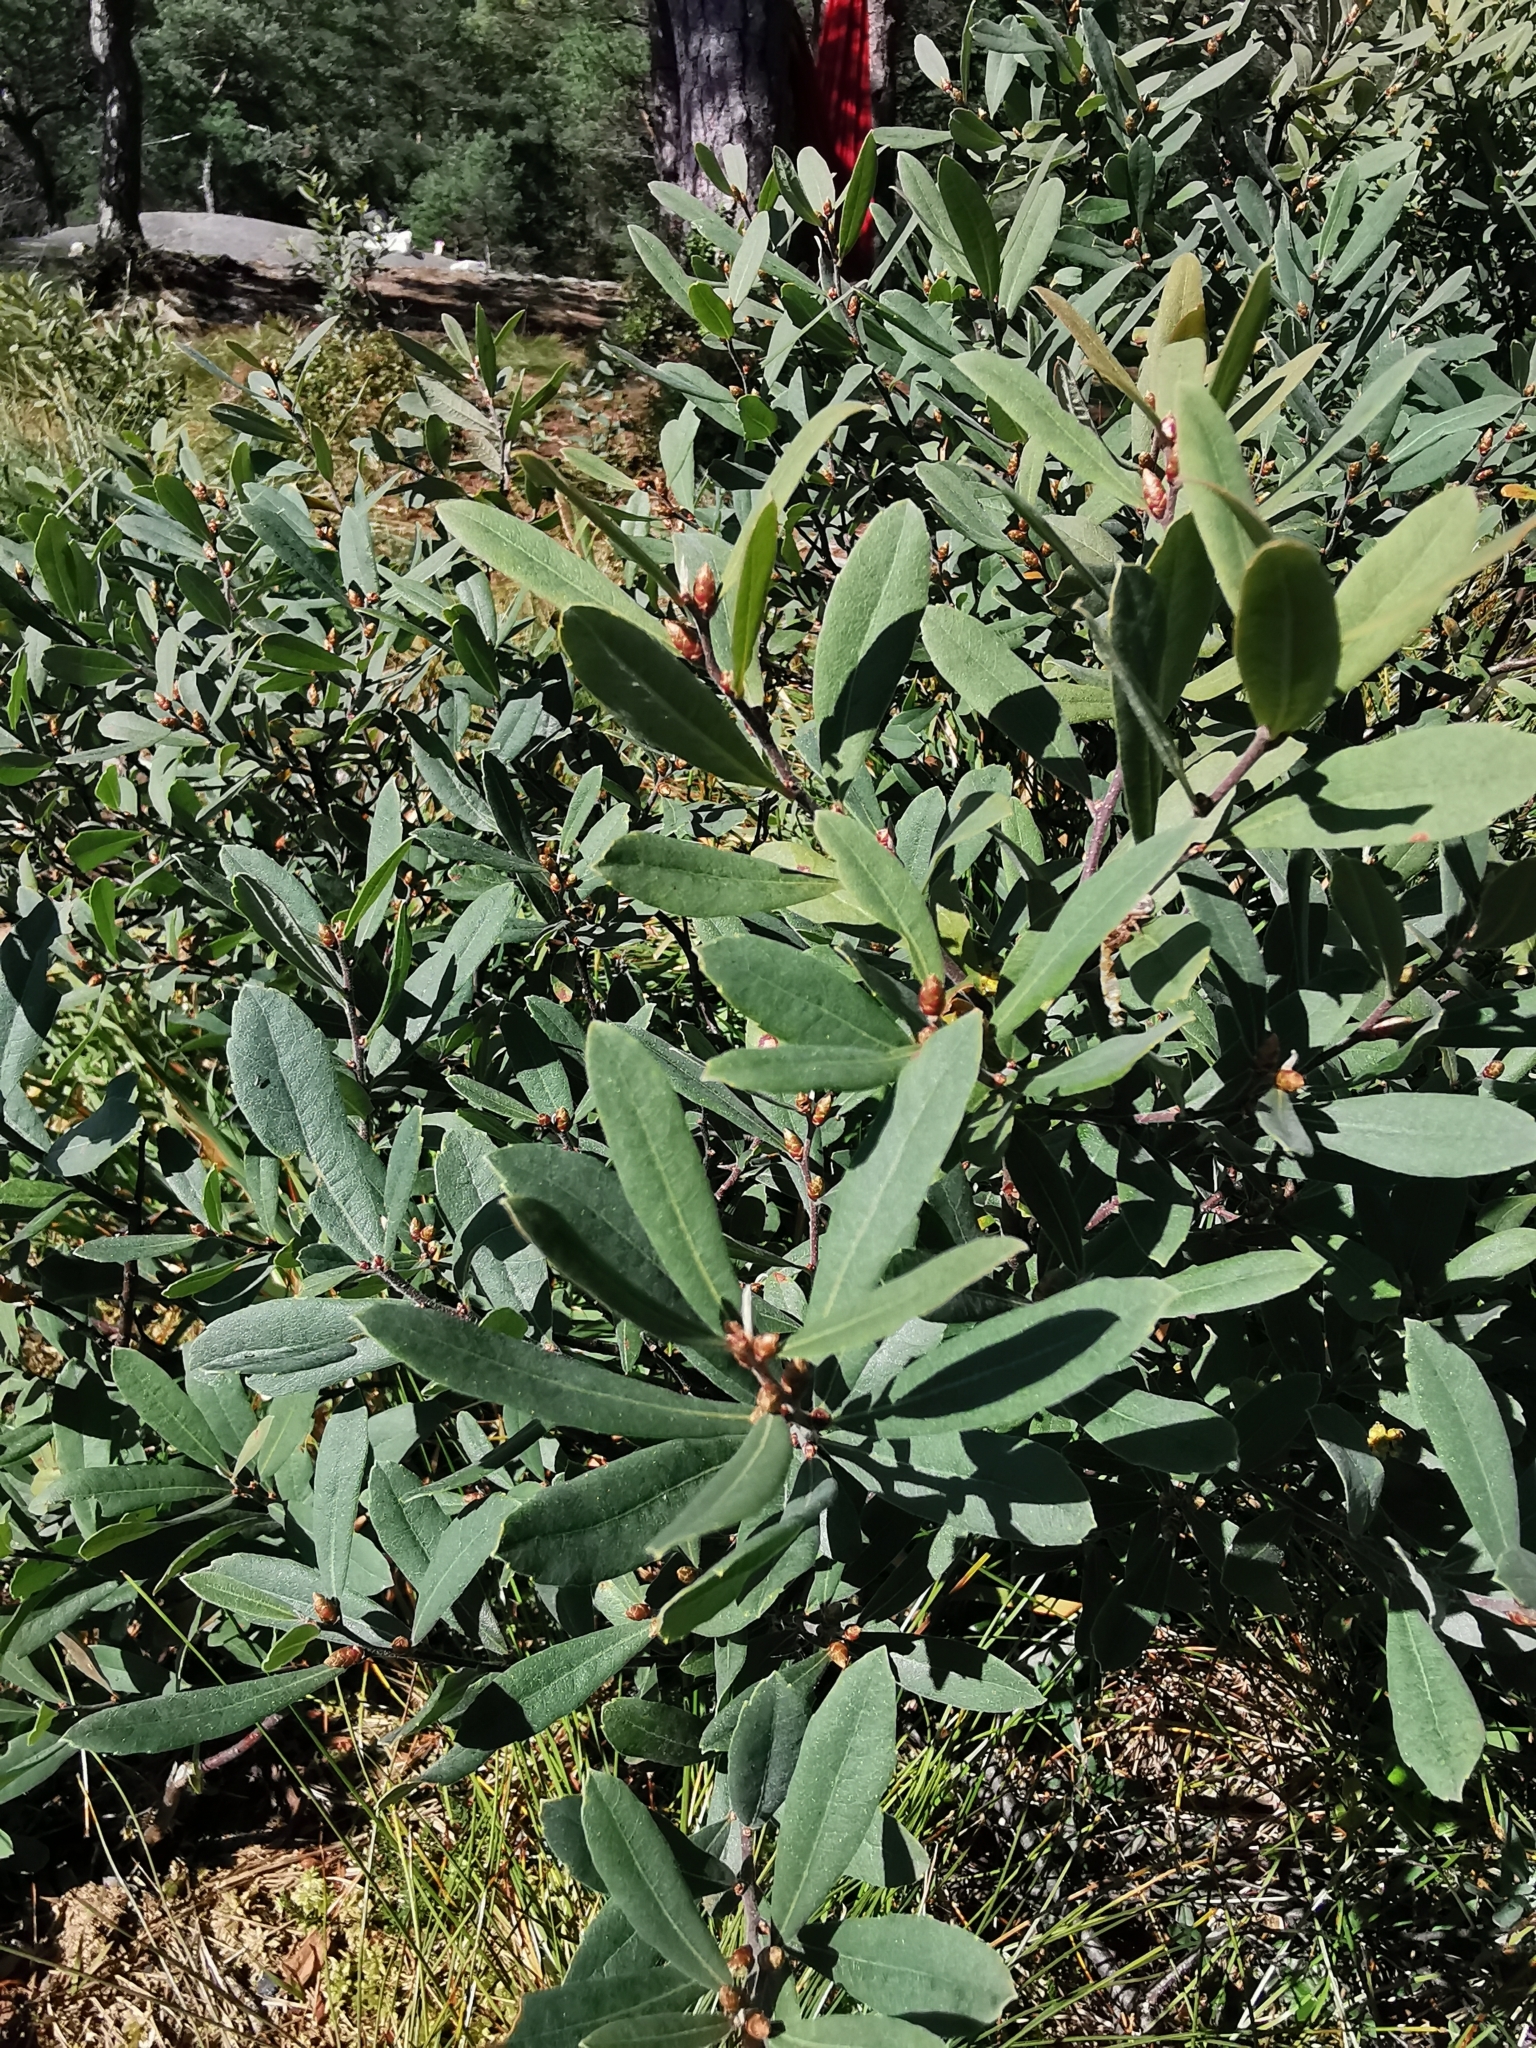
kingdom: Plantae
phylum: Tracheophyta
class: Magnoliopsida
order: Fagales
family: Myricaceae
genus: Myrica
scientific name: Myrica gale
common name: Sweet gale
